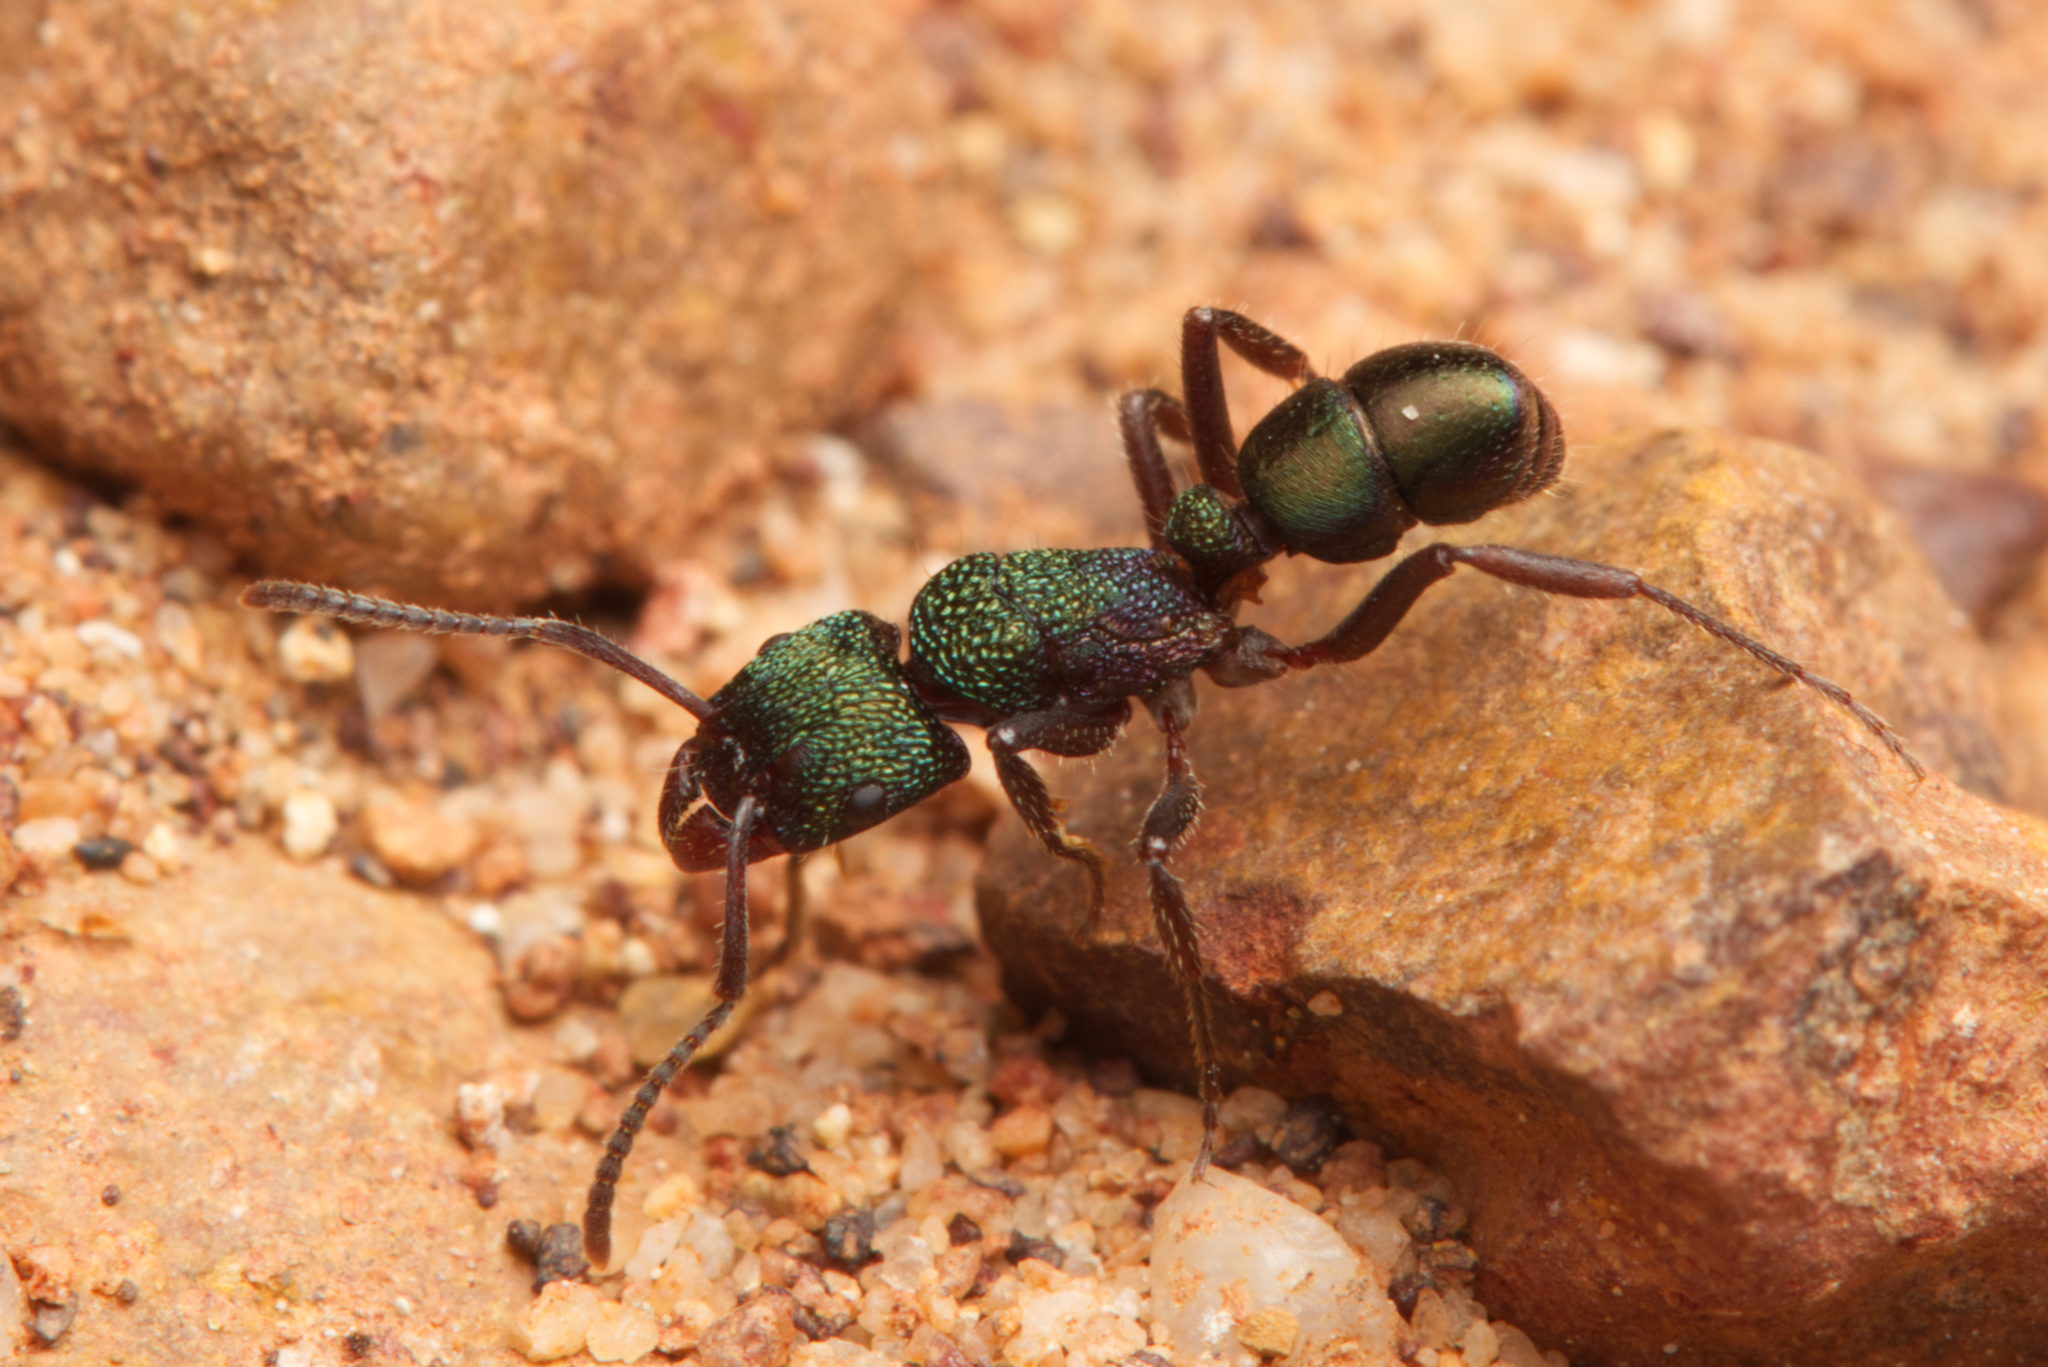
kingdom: Animalia
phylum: Arthropoda
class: Insecta
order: Hymenoptera
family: Formicidae
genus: Rhytidoponera
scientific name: Rhytidoponera metallica
